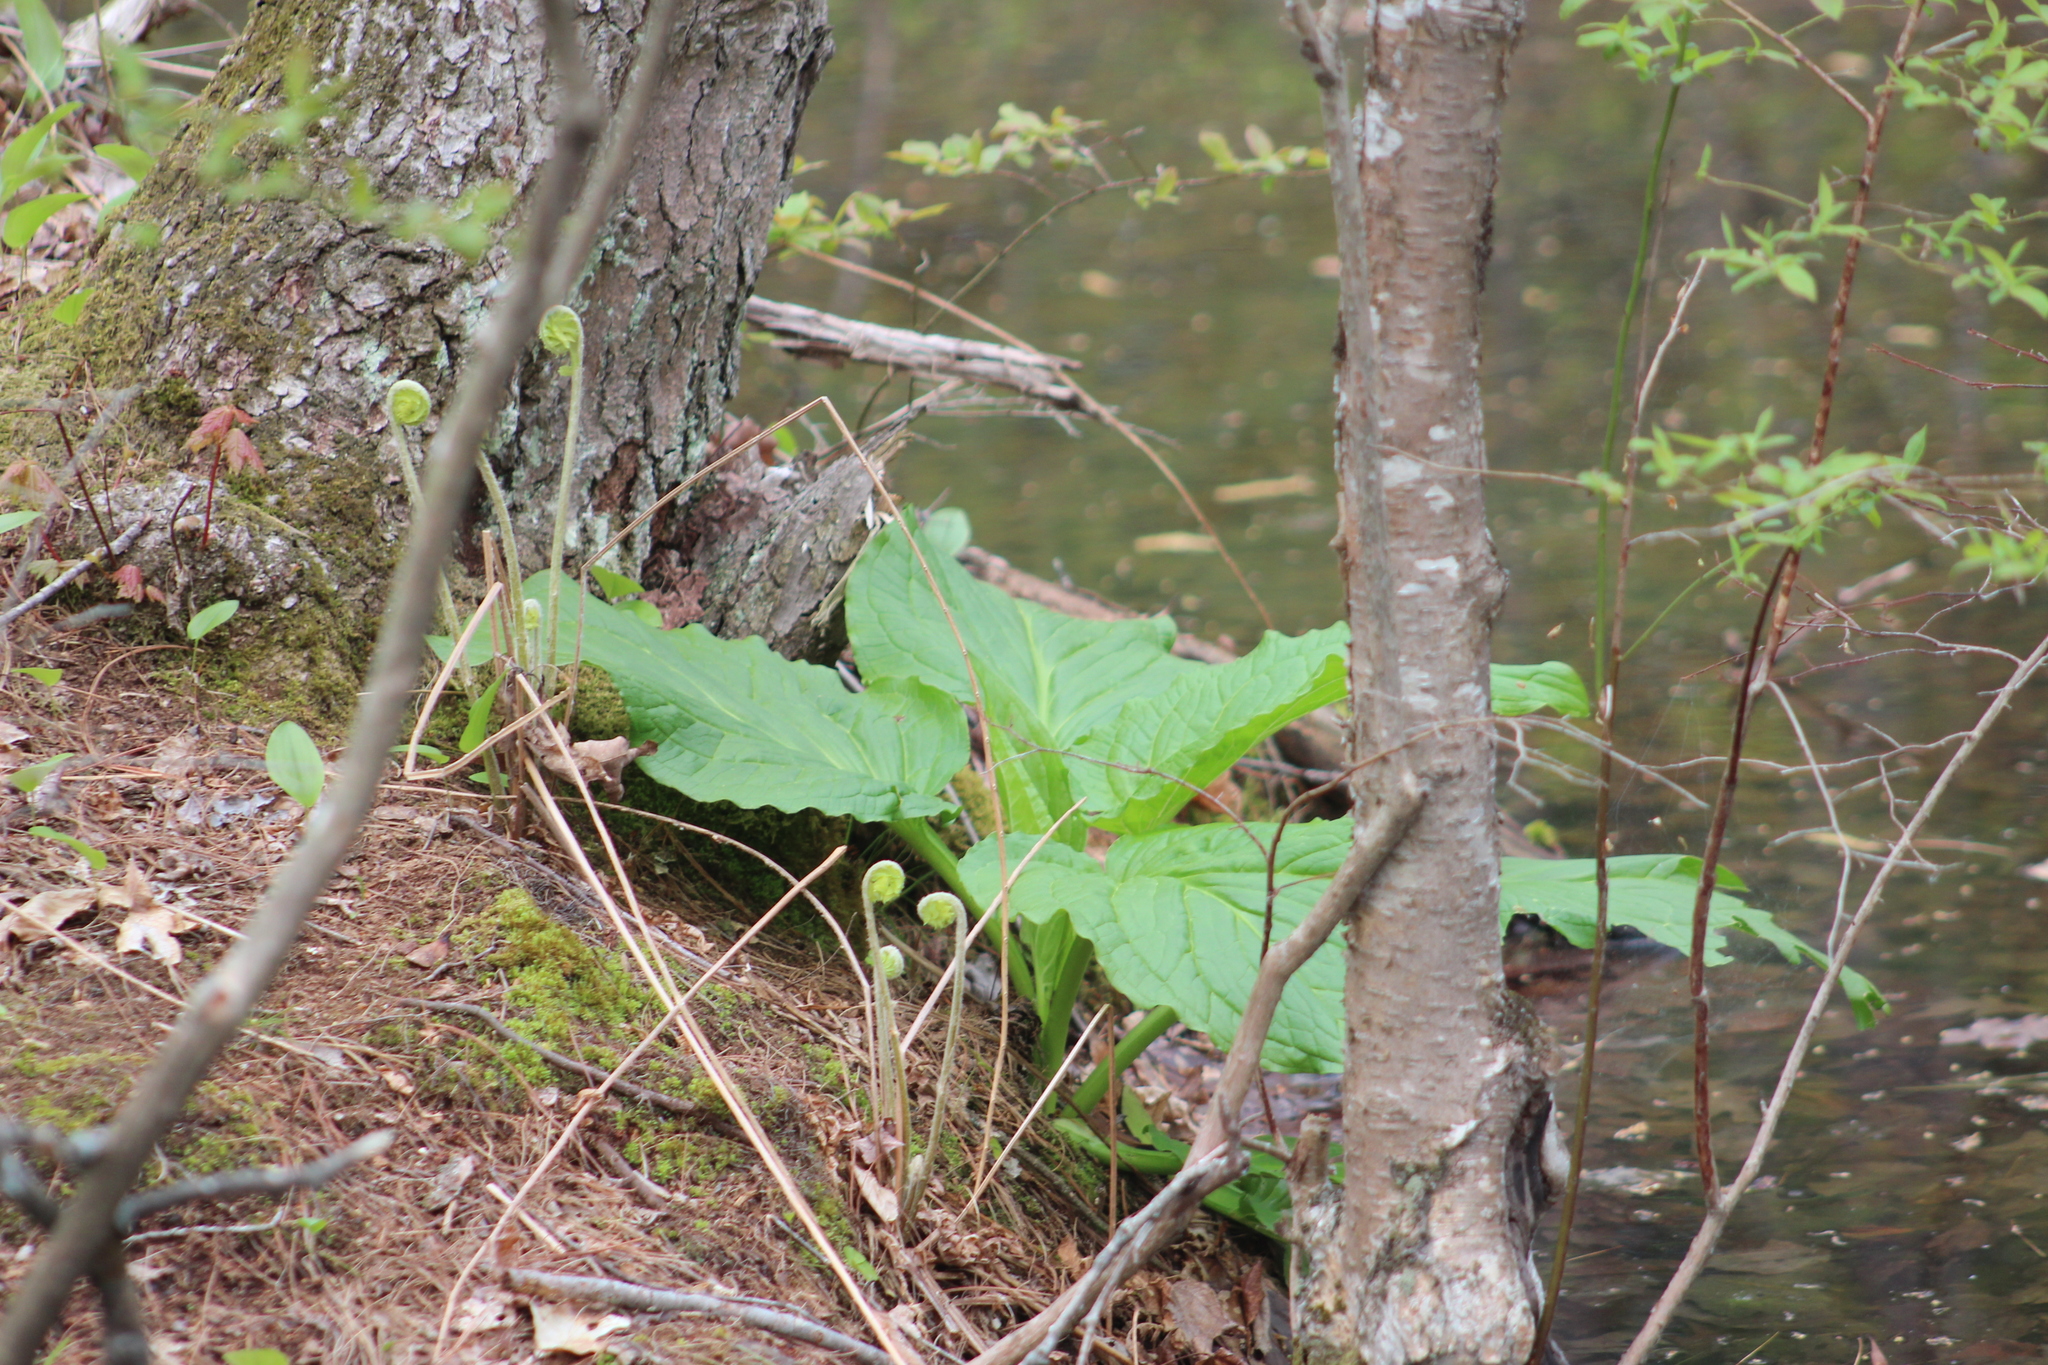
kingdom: Plantae
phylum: Tracheophyta
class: Liliopsida
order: Alismatales
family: Araceae
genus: Symplocarpus
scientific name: Symplocarpus foetidus
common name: Eastern skunk cabbage
